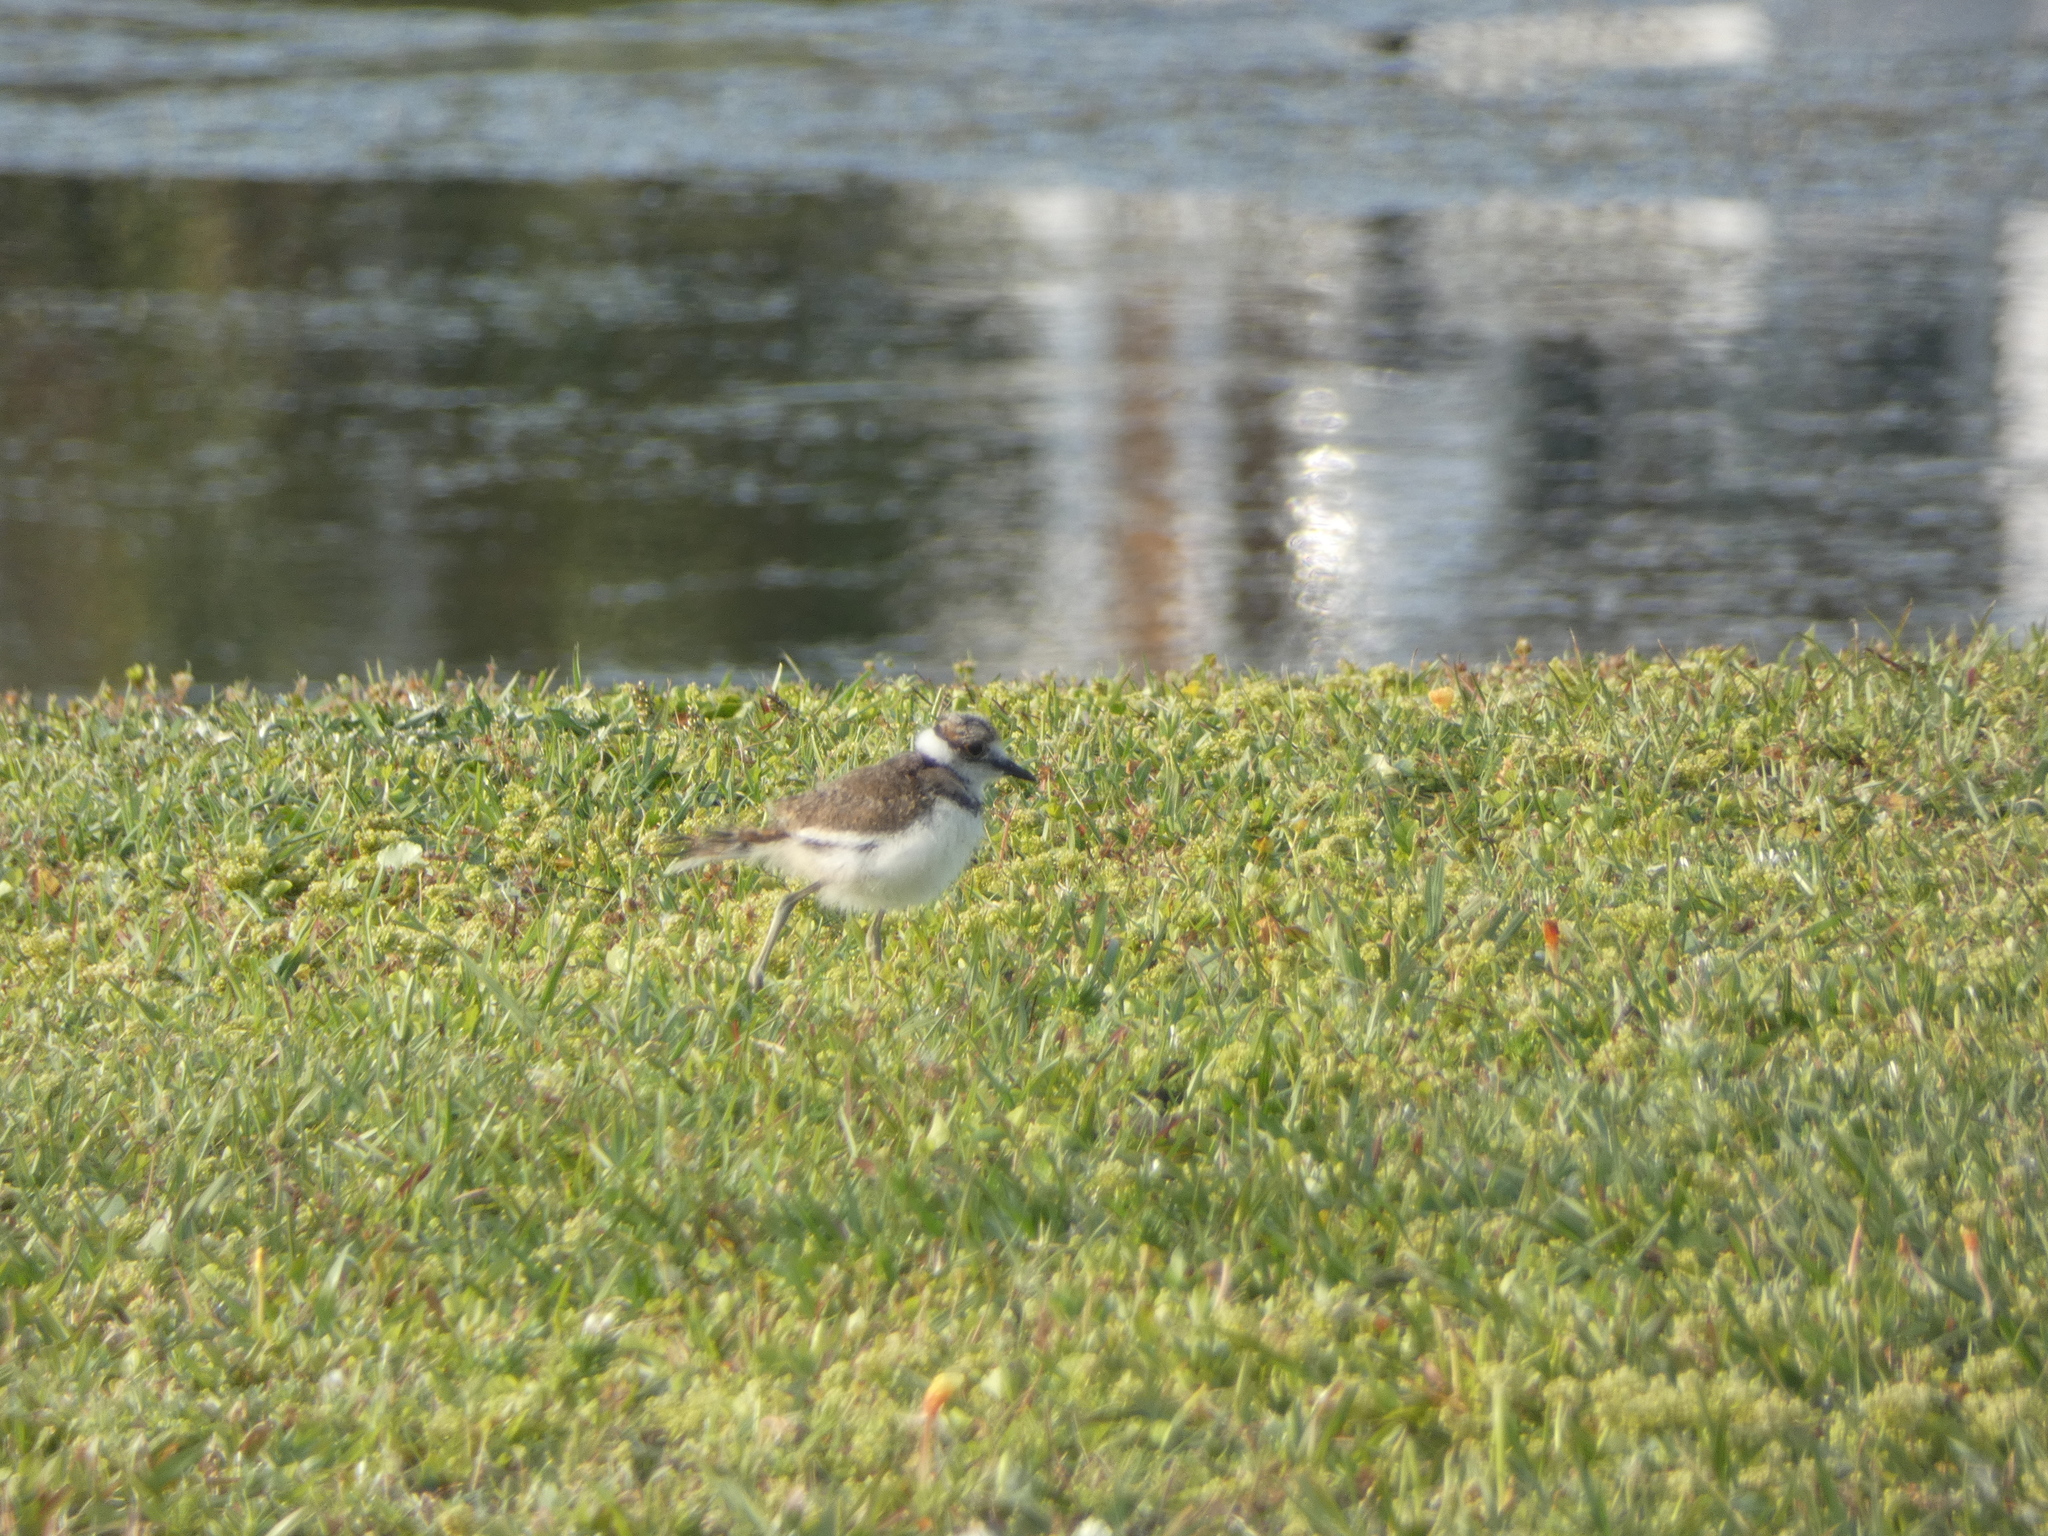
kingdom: Animalia
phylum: Chordata
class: Aves
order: Charadriiformes
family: Charadriidae
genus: Charadrius
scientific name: Charadrius vociferus
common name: Killdeer
